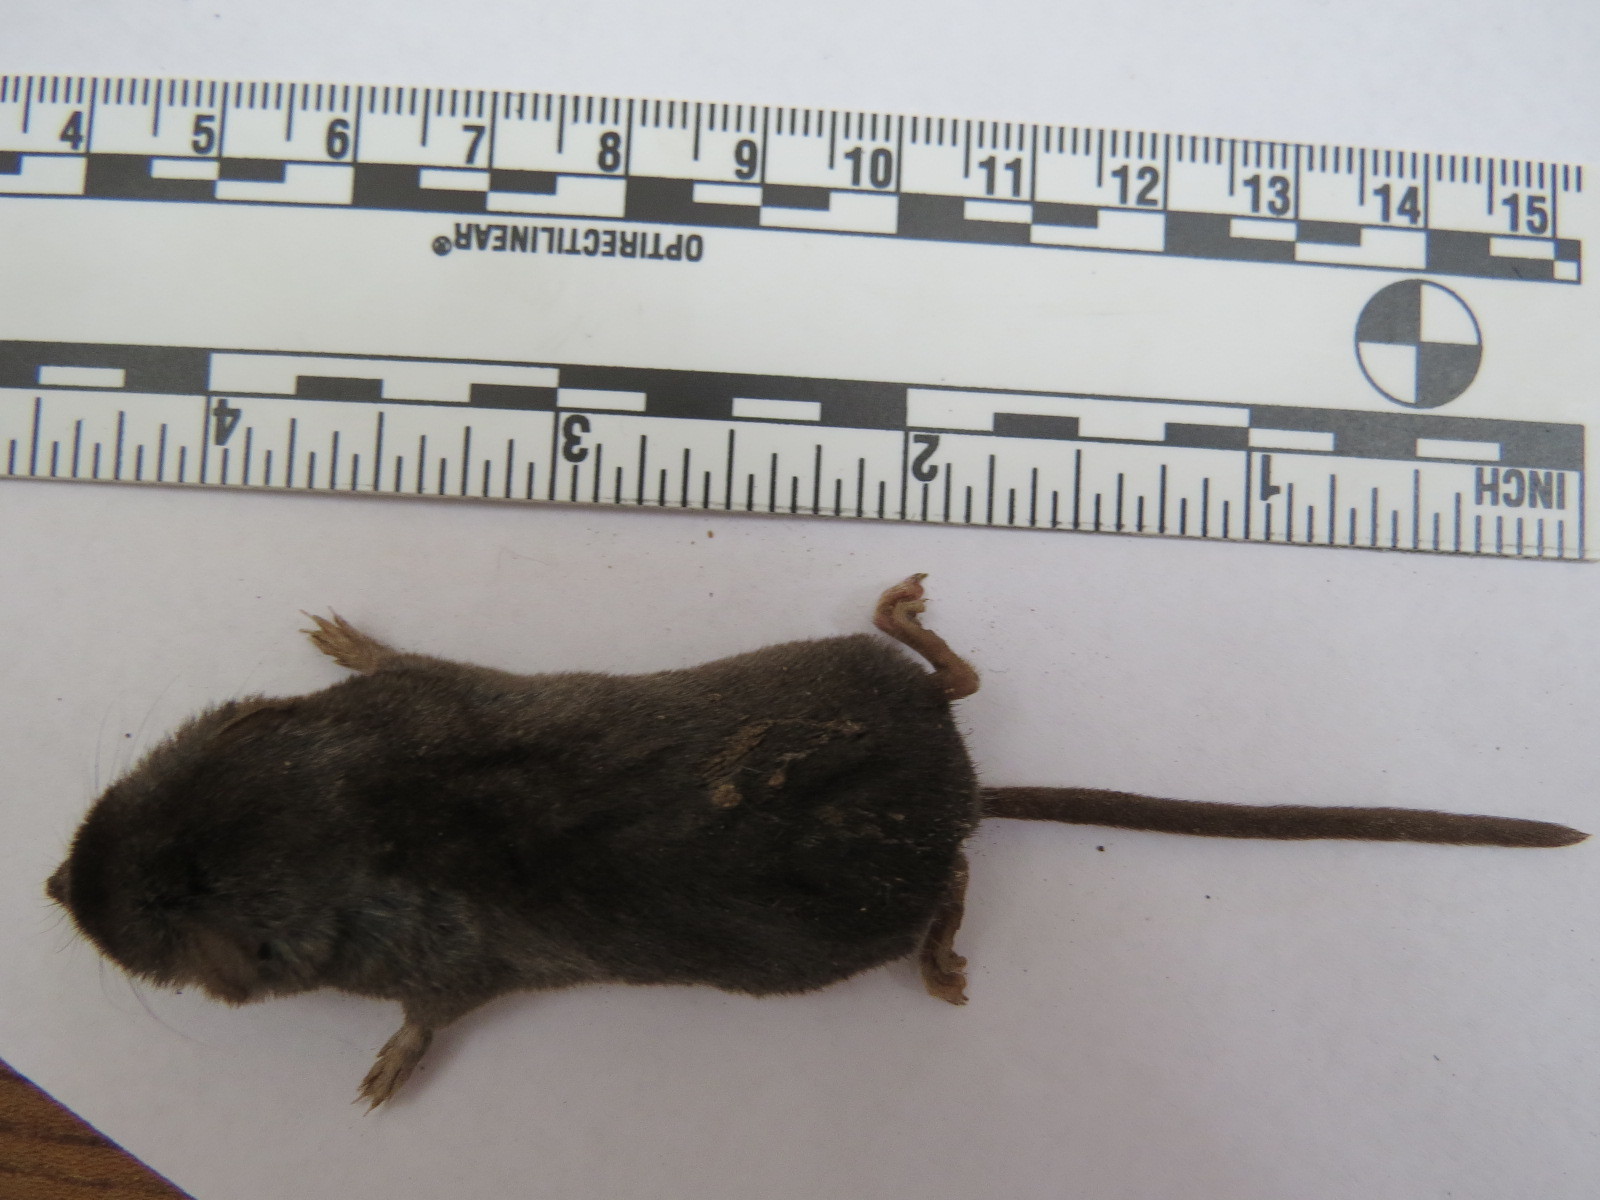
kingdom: Animalia
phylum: Chordata
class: Mammalia
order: Soricomorpha
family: Soricidae
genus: Sorex
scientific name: Sorex trowbridgii
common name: Trowbridge's shrew
